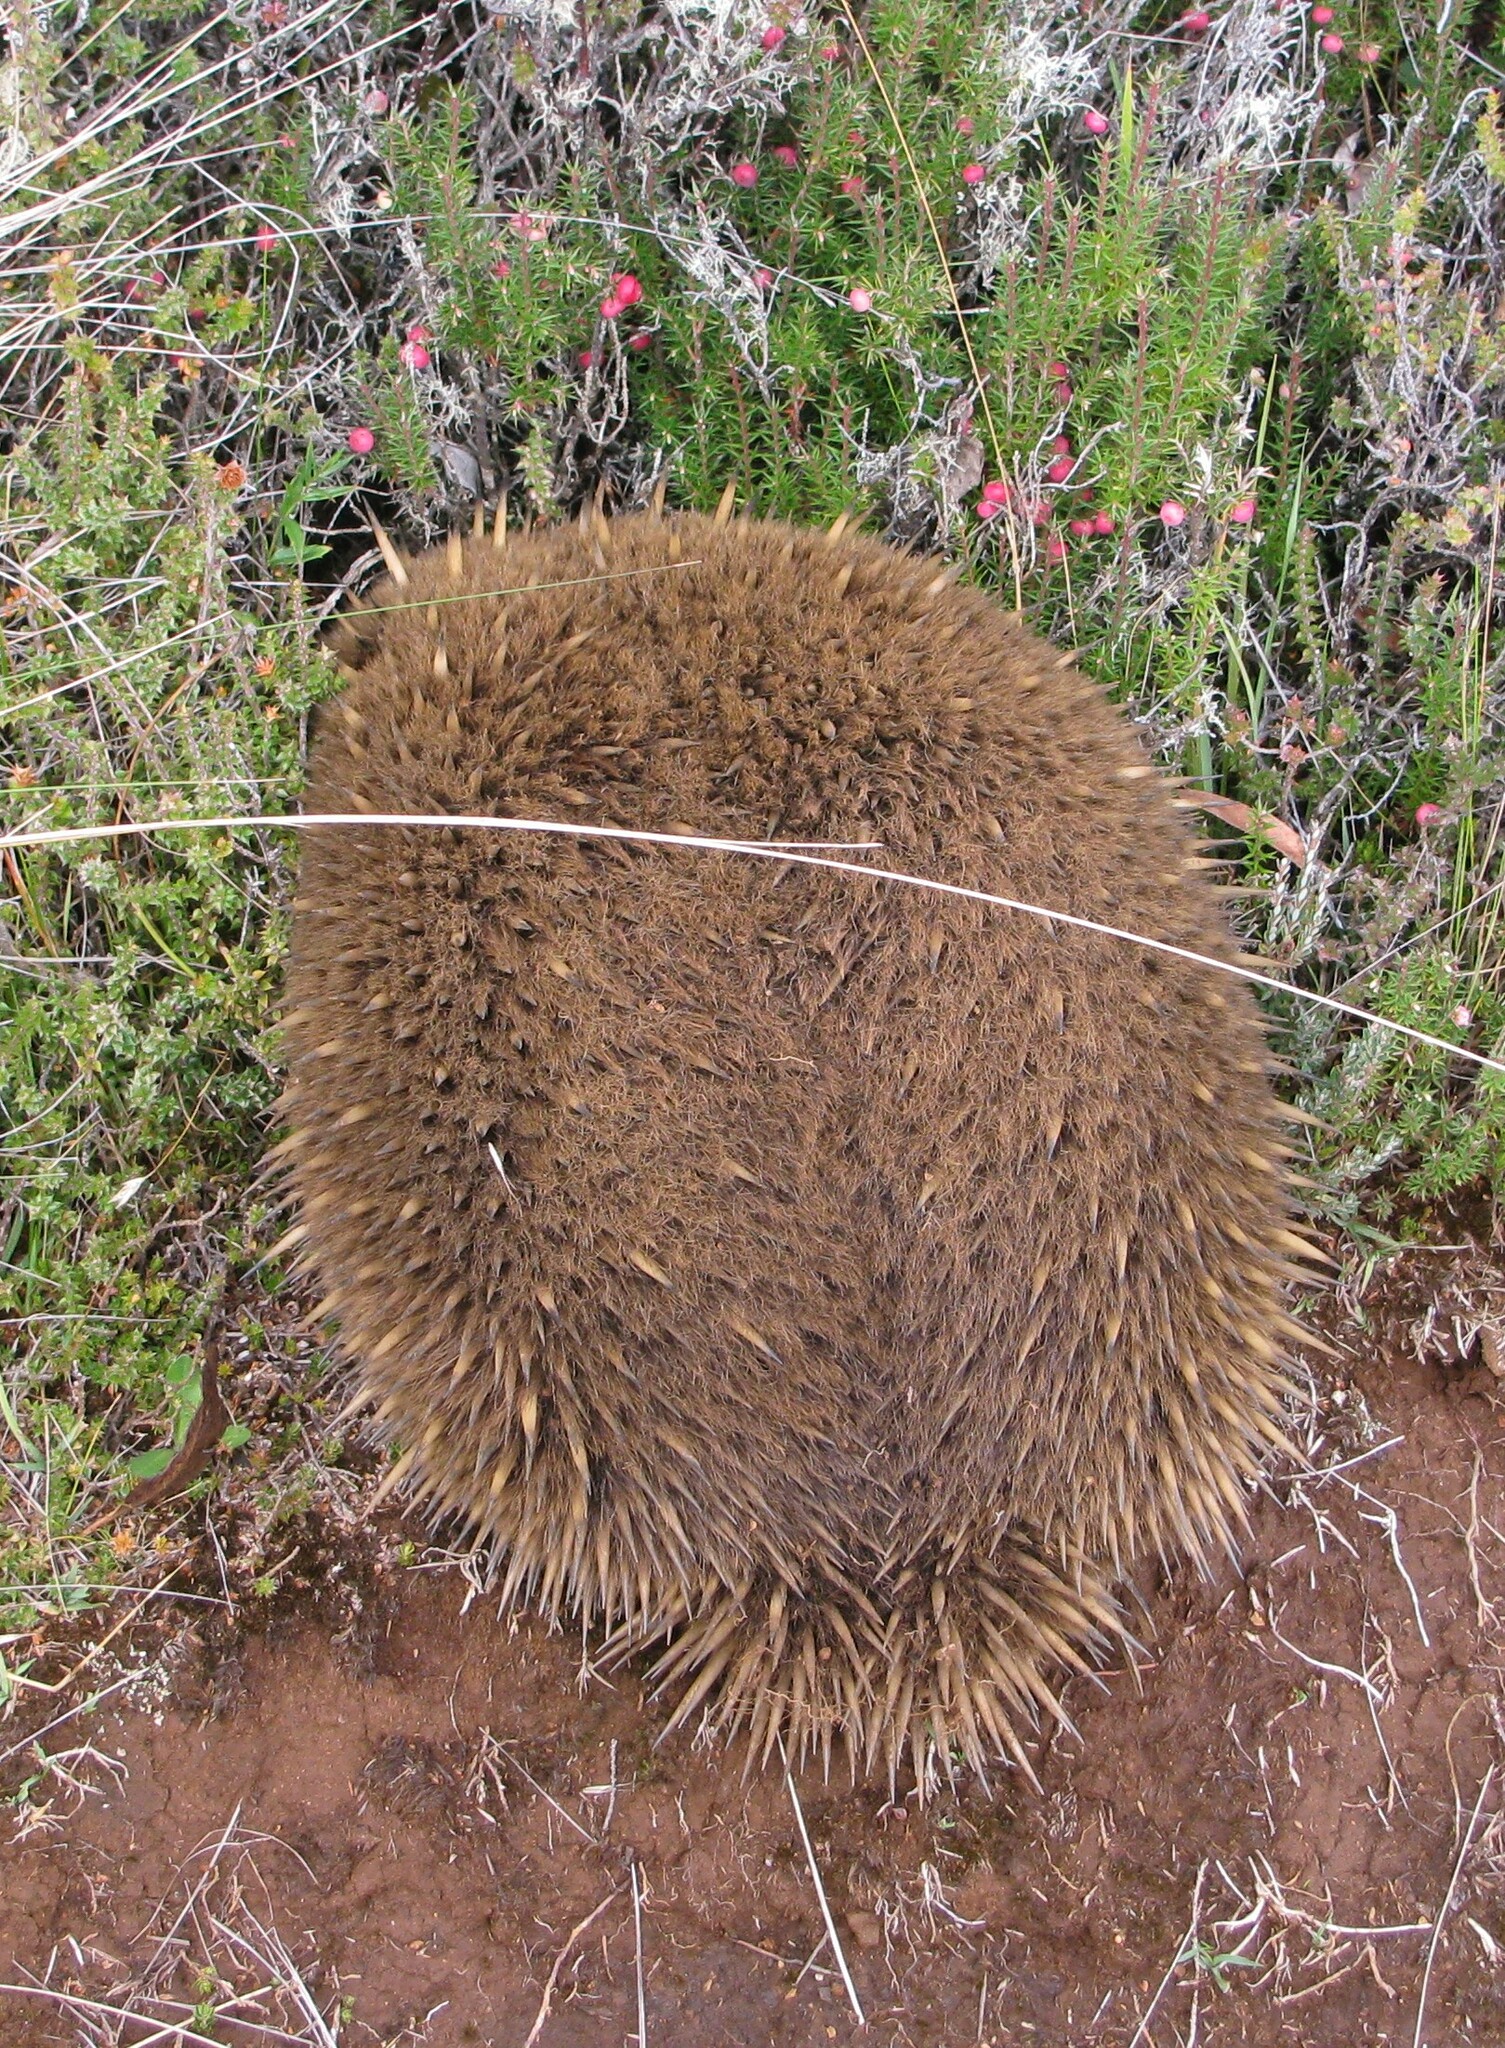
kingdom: Animalia
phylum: Chordata
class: Mammalia
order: Monotremata
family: Tachyglossidae
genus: Tachyglossus
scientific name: Tachyglossus aculeatus
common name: Short-beaked echidna
